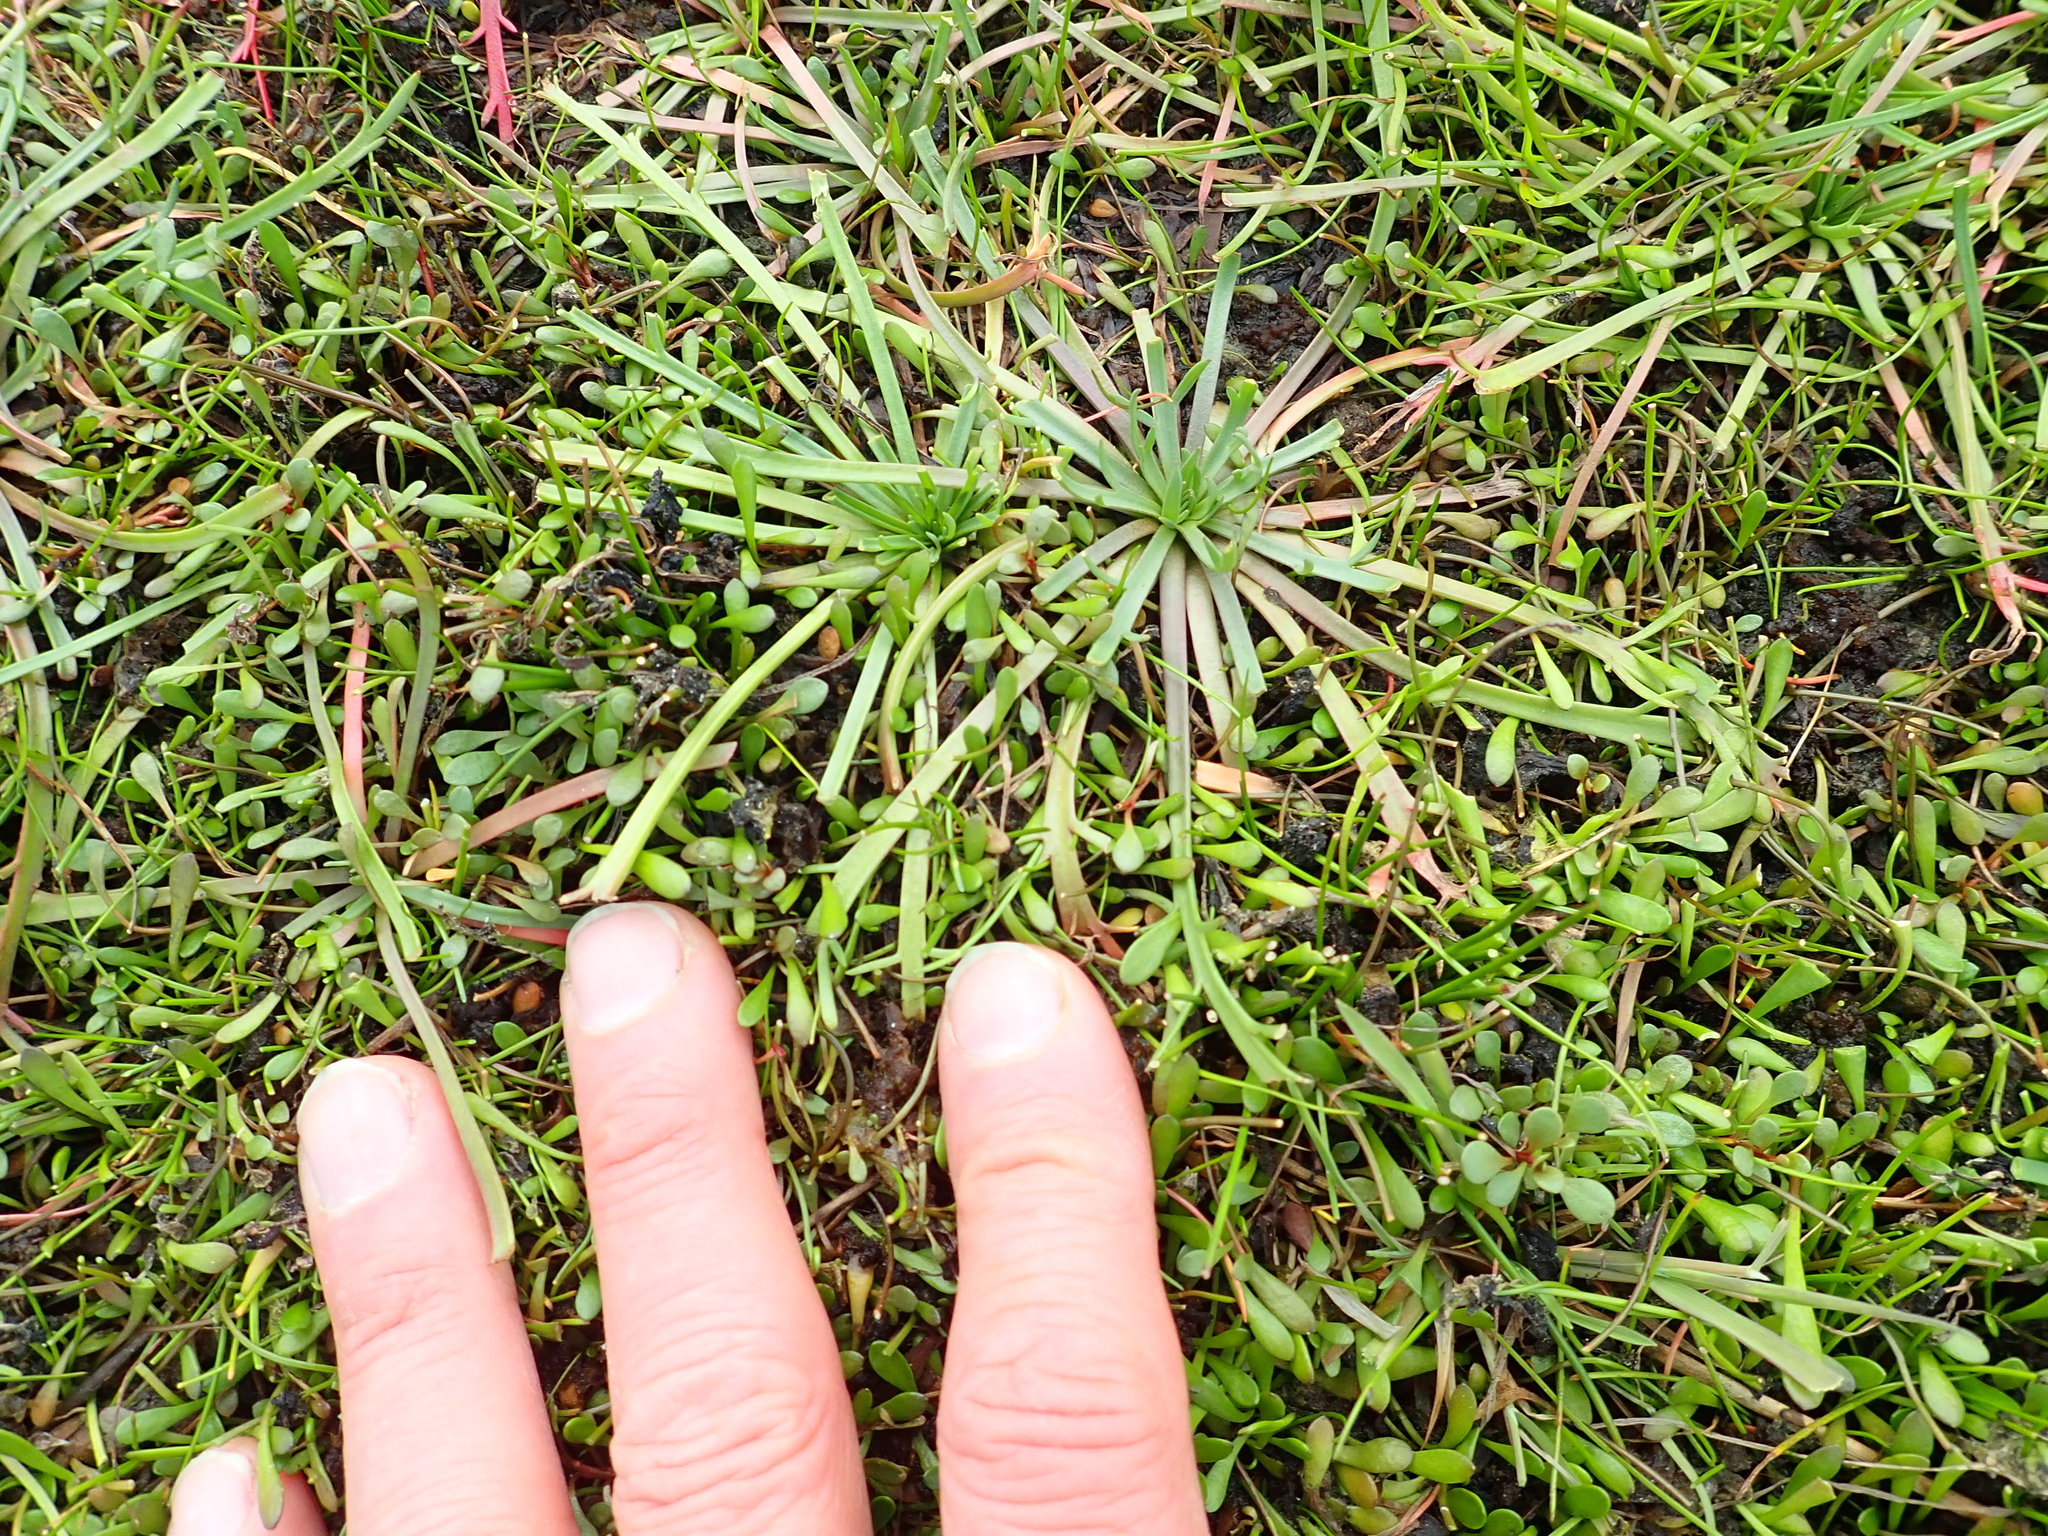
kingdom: Plantae
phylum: Tracheophyta
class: Magnoliopsida
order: Lamiales
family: Plantaginaceae
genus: Plantago
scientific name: Plantago coronopus
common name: Buck's-horn plantain
